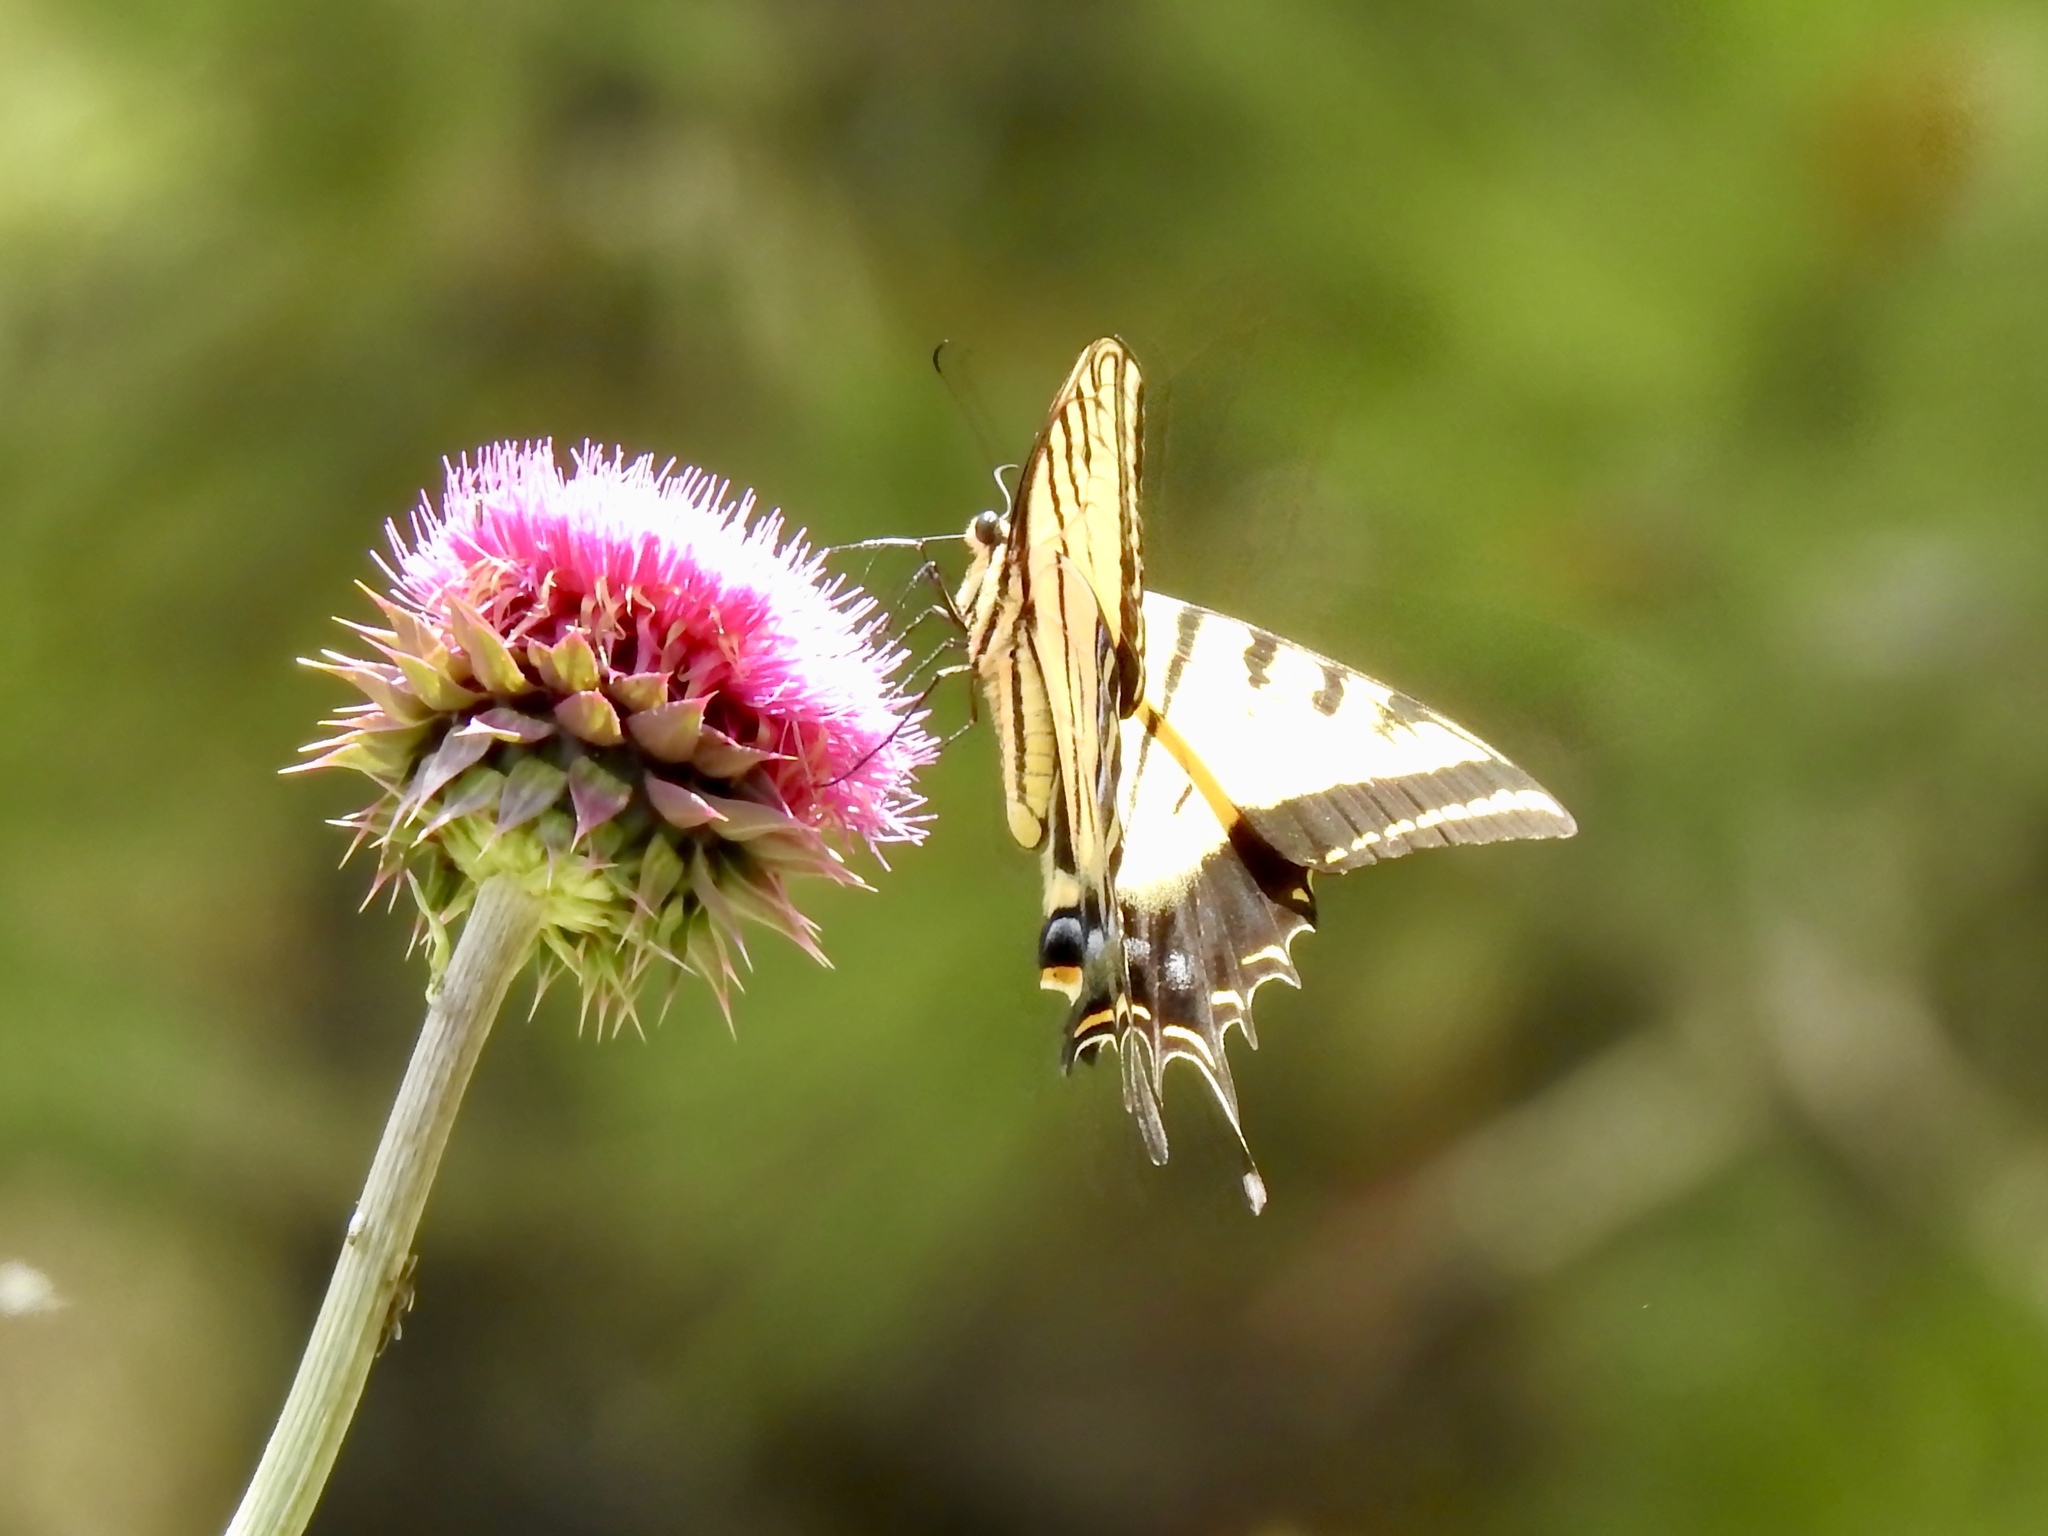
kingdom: Animalia
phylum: Arthropoda
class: Insecta
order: Lepidoptera
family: Papilionidae
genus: Papilio
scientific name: Papilio multicaudata
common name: Two-tailed tiger swallowtail
